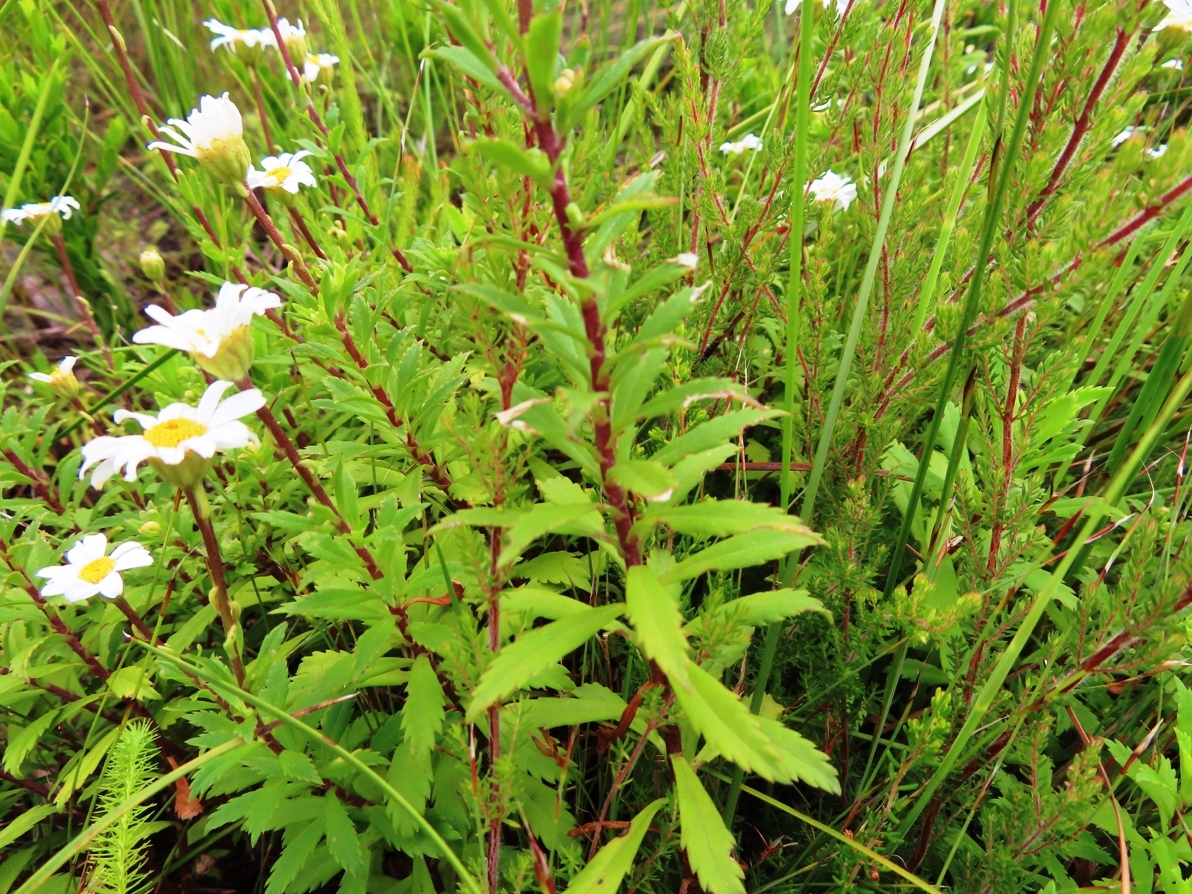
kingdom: Plantae
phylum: Tracheophyta
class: Magnoliopsida
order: Asterales
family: Asteraceae
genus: Osmitopsis
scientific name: Osmitopsis osmitoides
